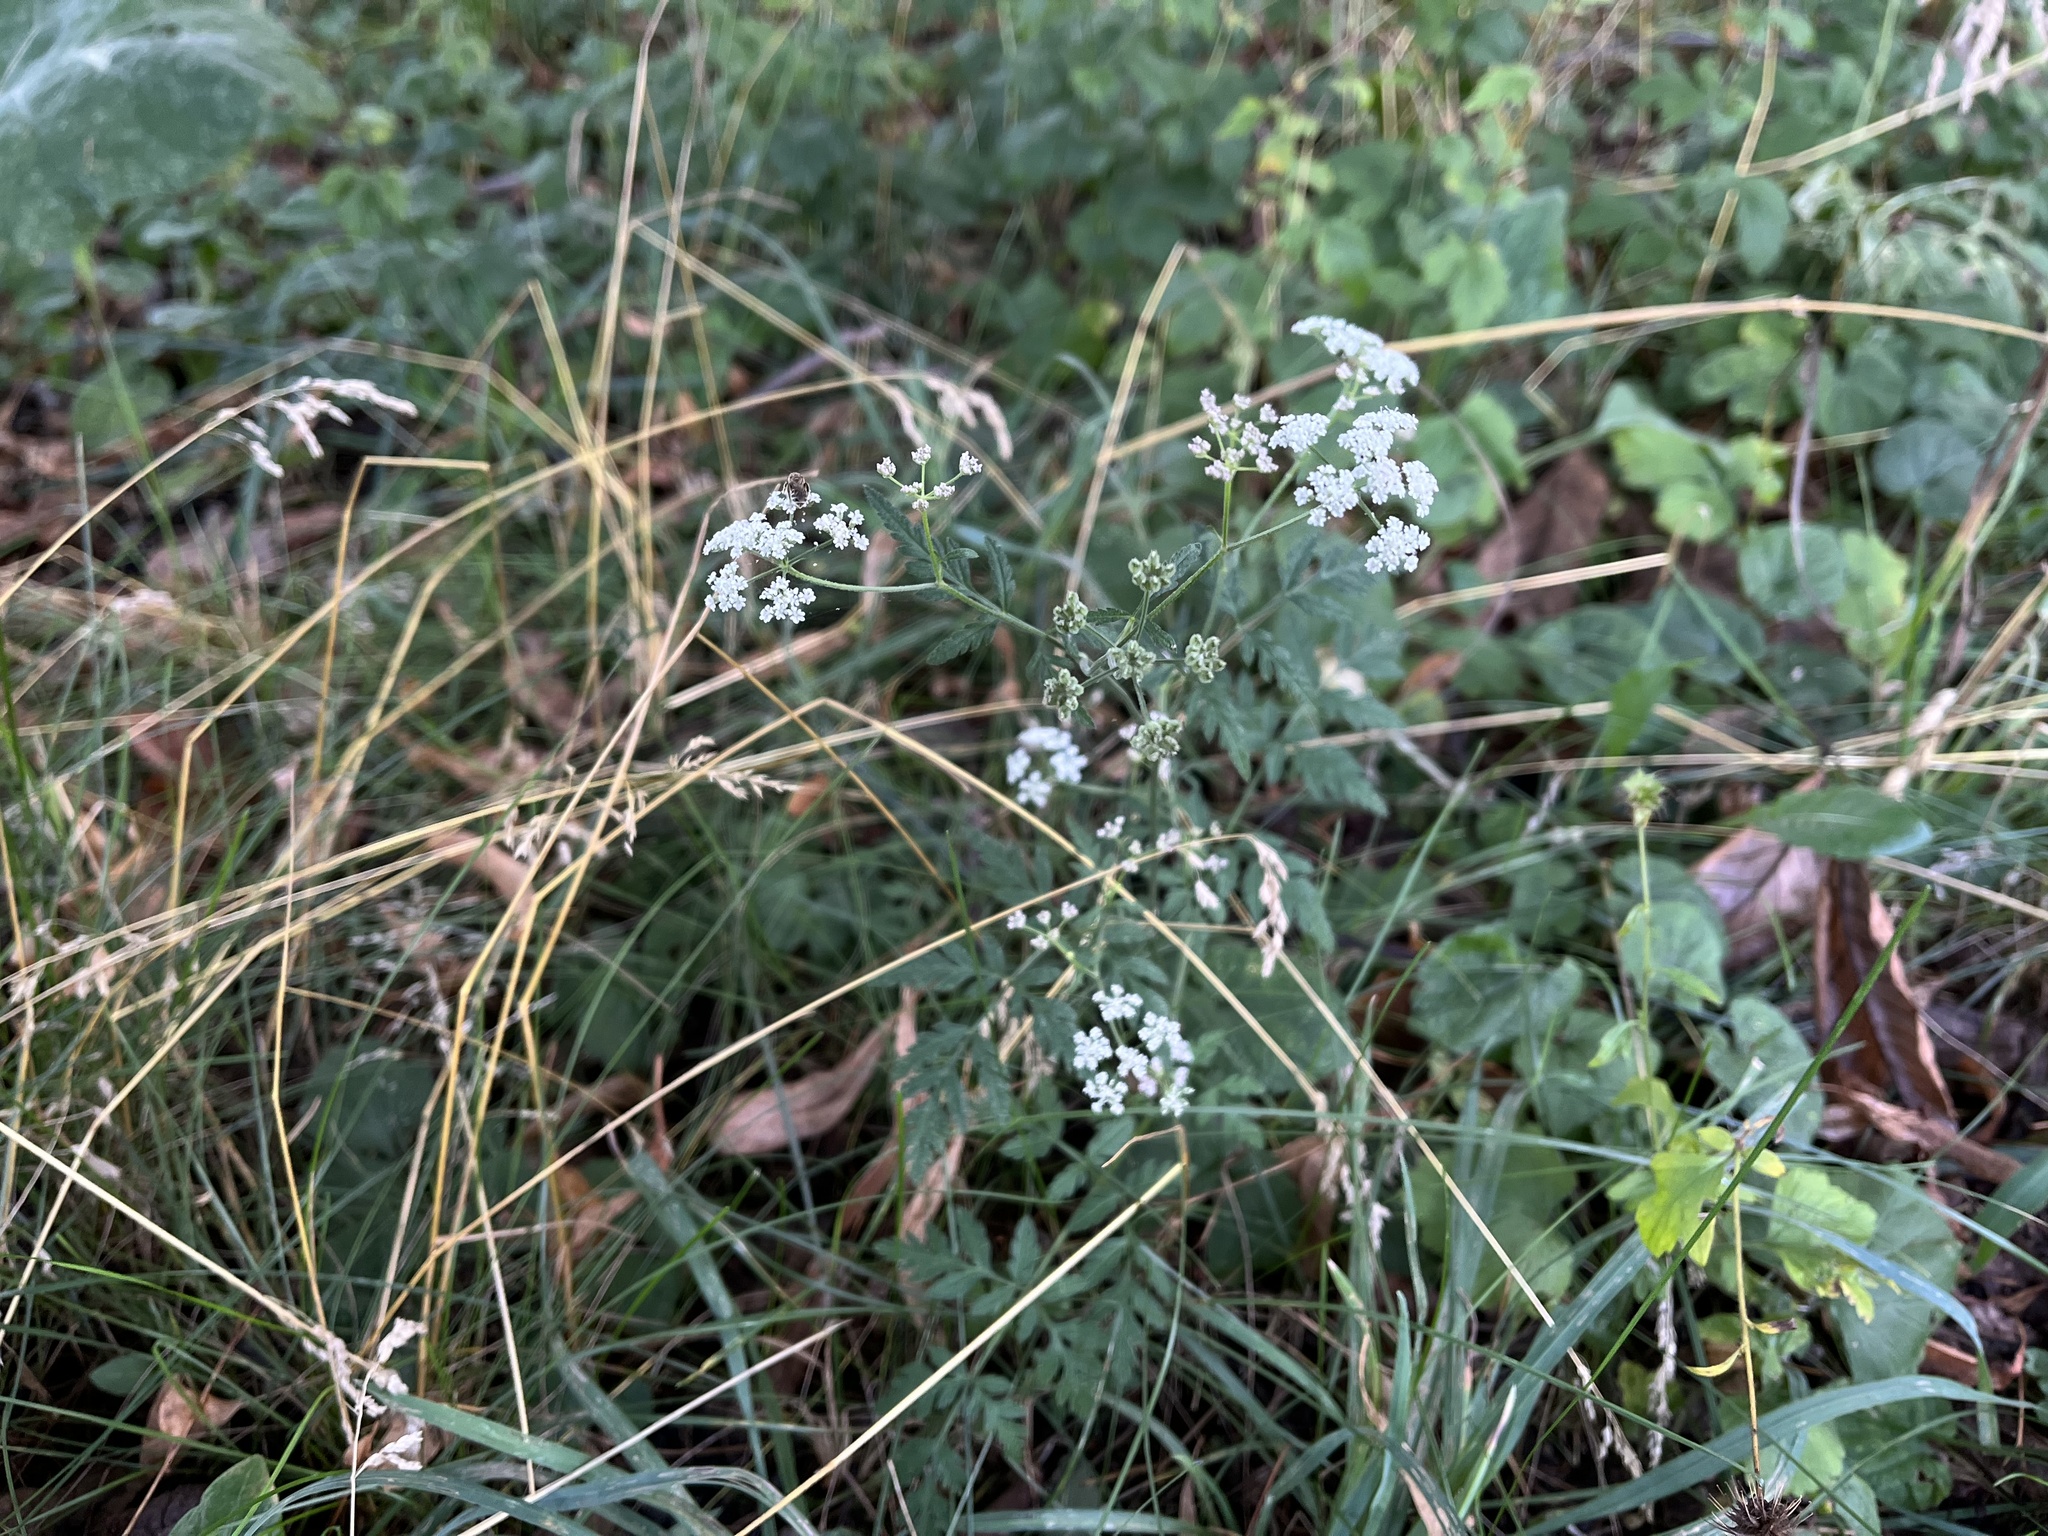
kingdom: Plantae
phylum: Tracheophyta
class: Magnoliopsida
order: Apiales
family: Apiaceae
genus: Torilis
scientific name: Torilis japonica
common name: Upright hedge-parsley
